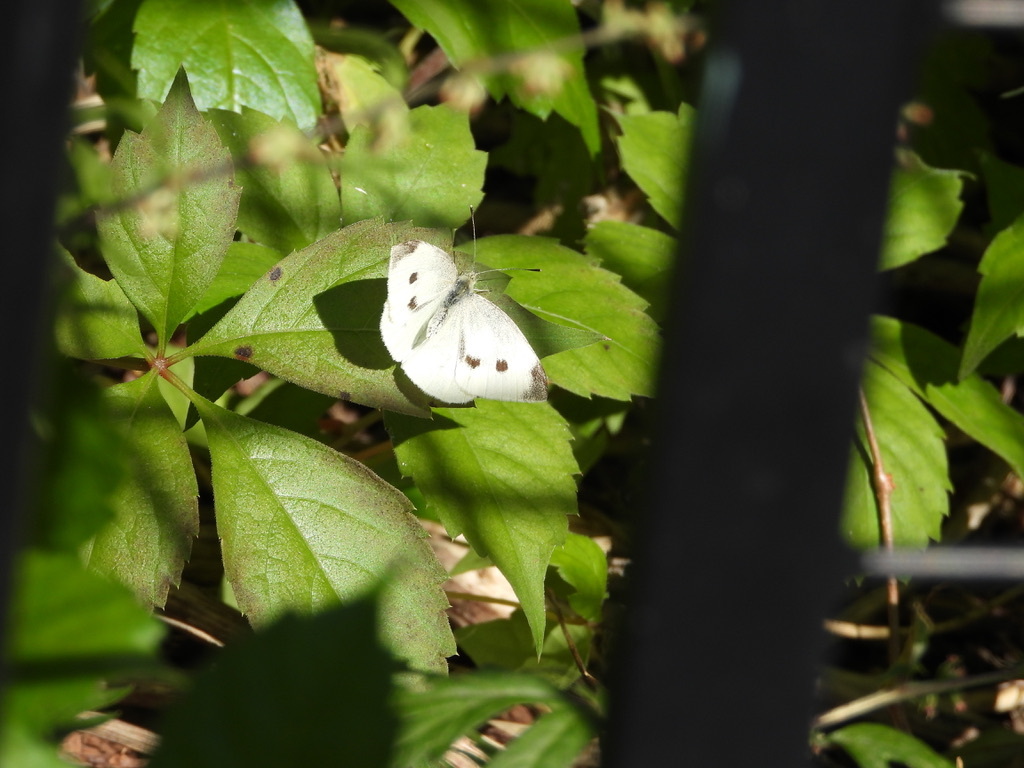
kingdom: Animalia
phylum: Arthropoda
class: Insecta
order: Lepidoptera
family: Pieridae
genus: Pieris
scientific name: Pieris rapae
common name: Small white
